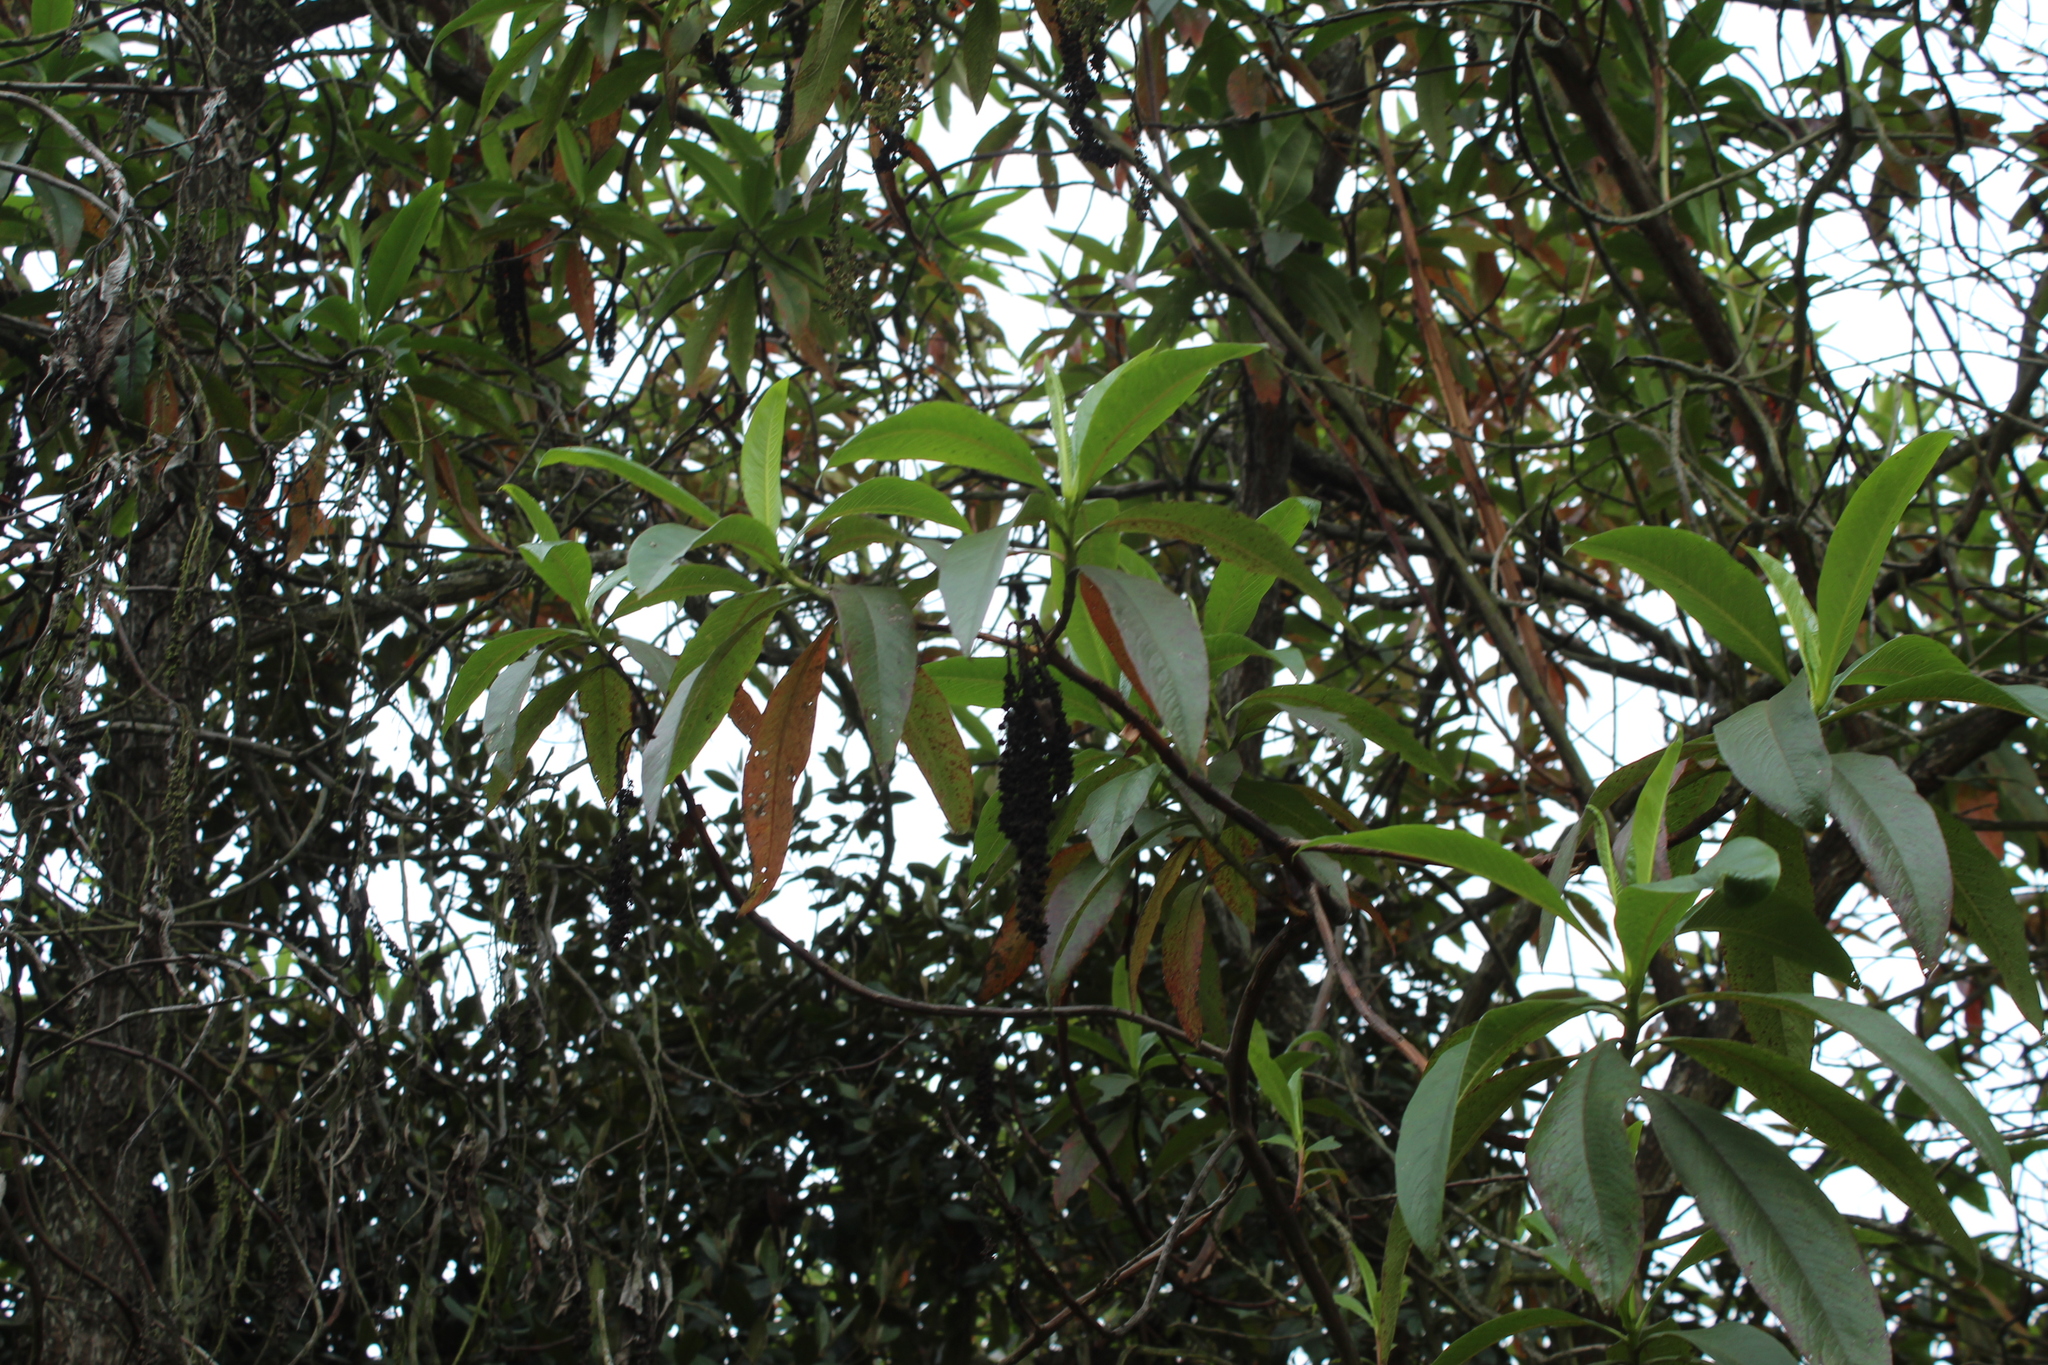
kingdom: Plantae
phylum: Tracheophyta
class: Magnoliopsida
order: Escalloniales
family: Escalloniaceae
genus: Escallonia
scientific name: Escallonia pendula
